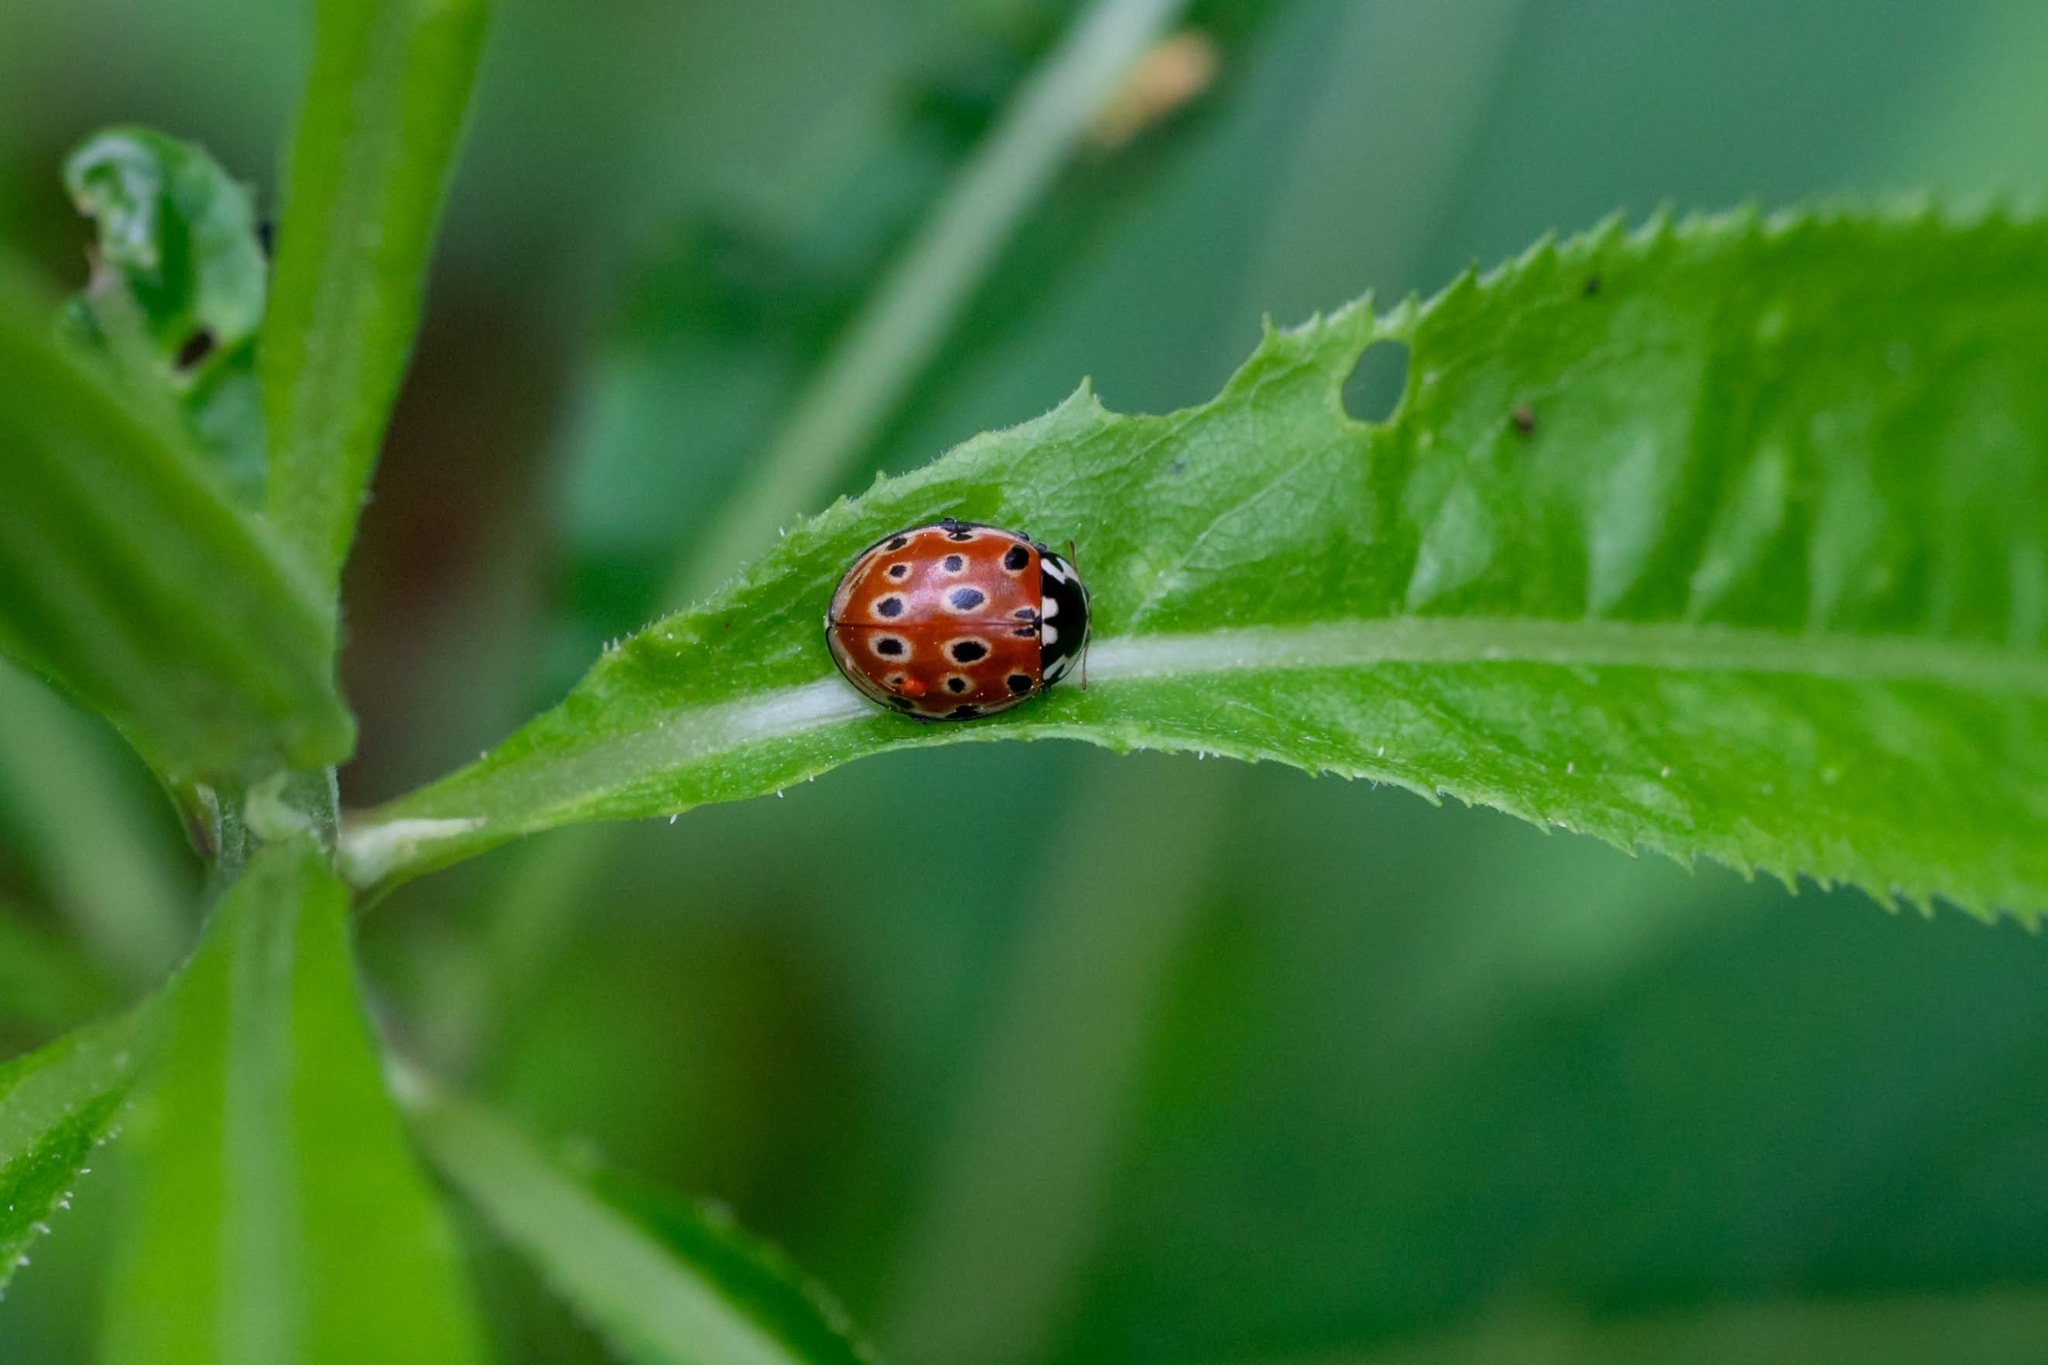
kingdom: Animalia
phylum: Arthropoda
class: Insecta
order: Coleoptera
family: Coccinellidae
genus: Anatis
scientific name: Anatis ocellata
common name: Eyed ladybird
